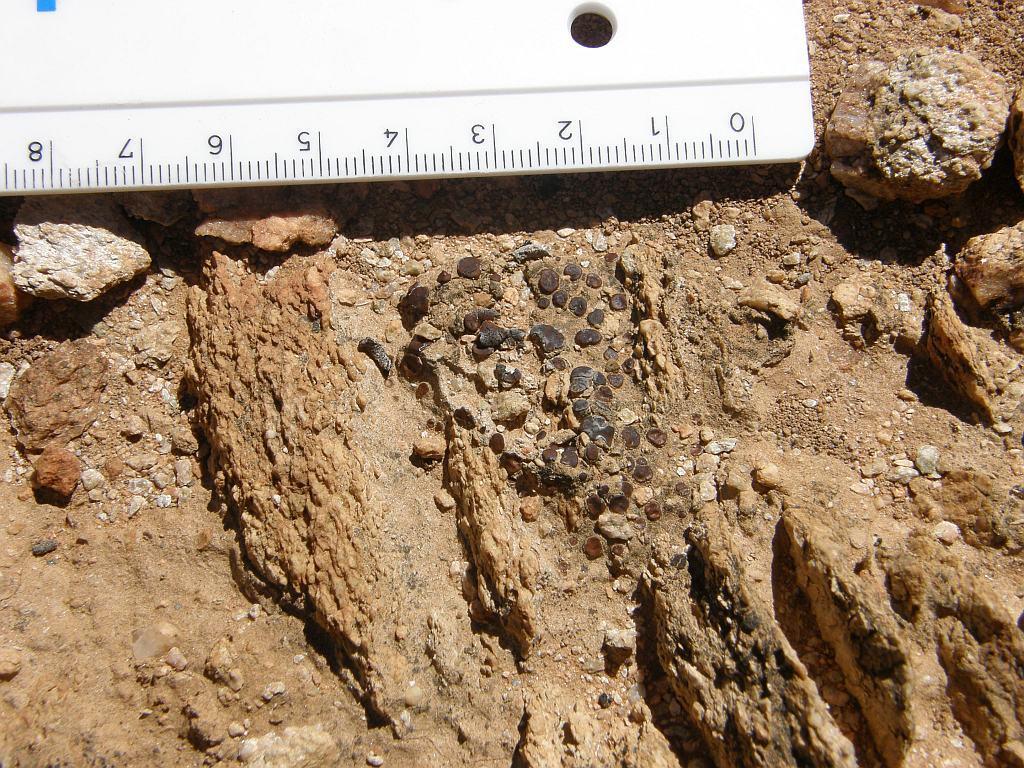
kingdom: Fungi
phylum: Ascomycota
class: Eurotiomycetes
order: Verrucariales
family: Verrucariaceae
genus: Catapyrenium
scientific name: Catapyrenium squamulosum
